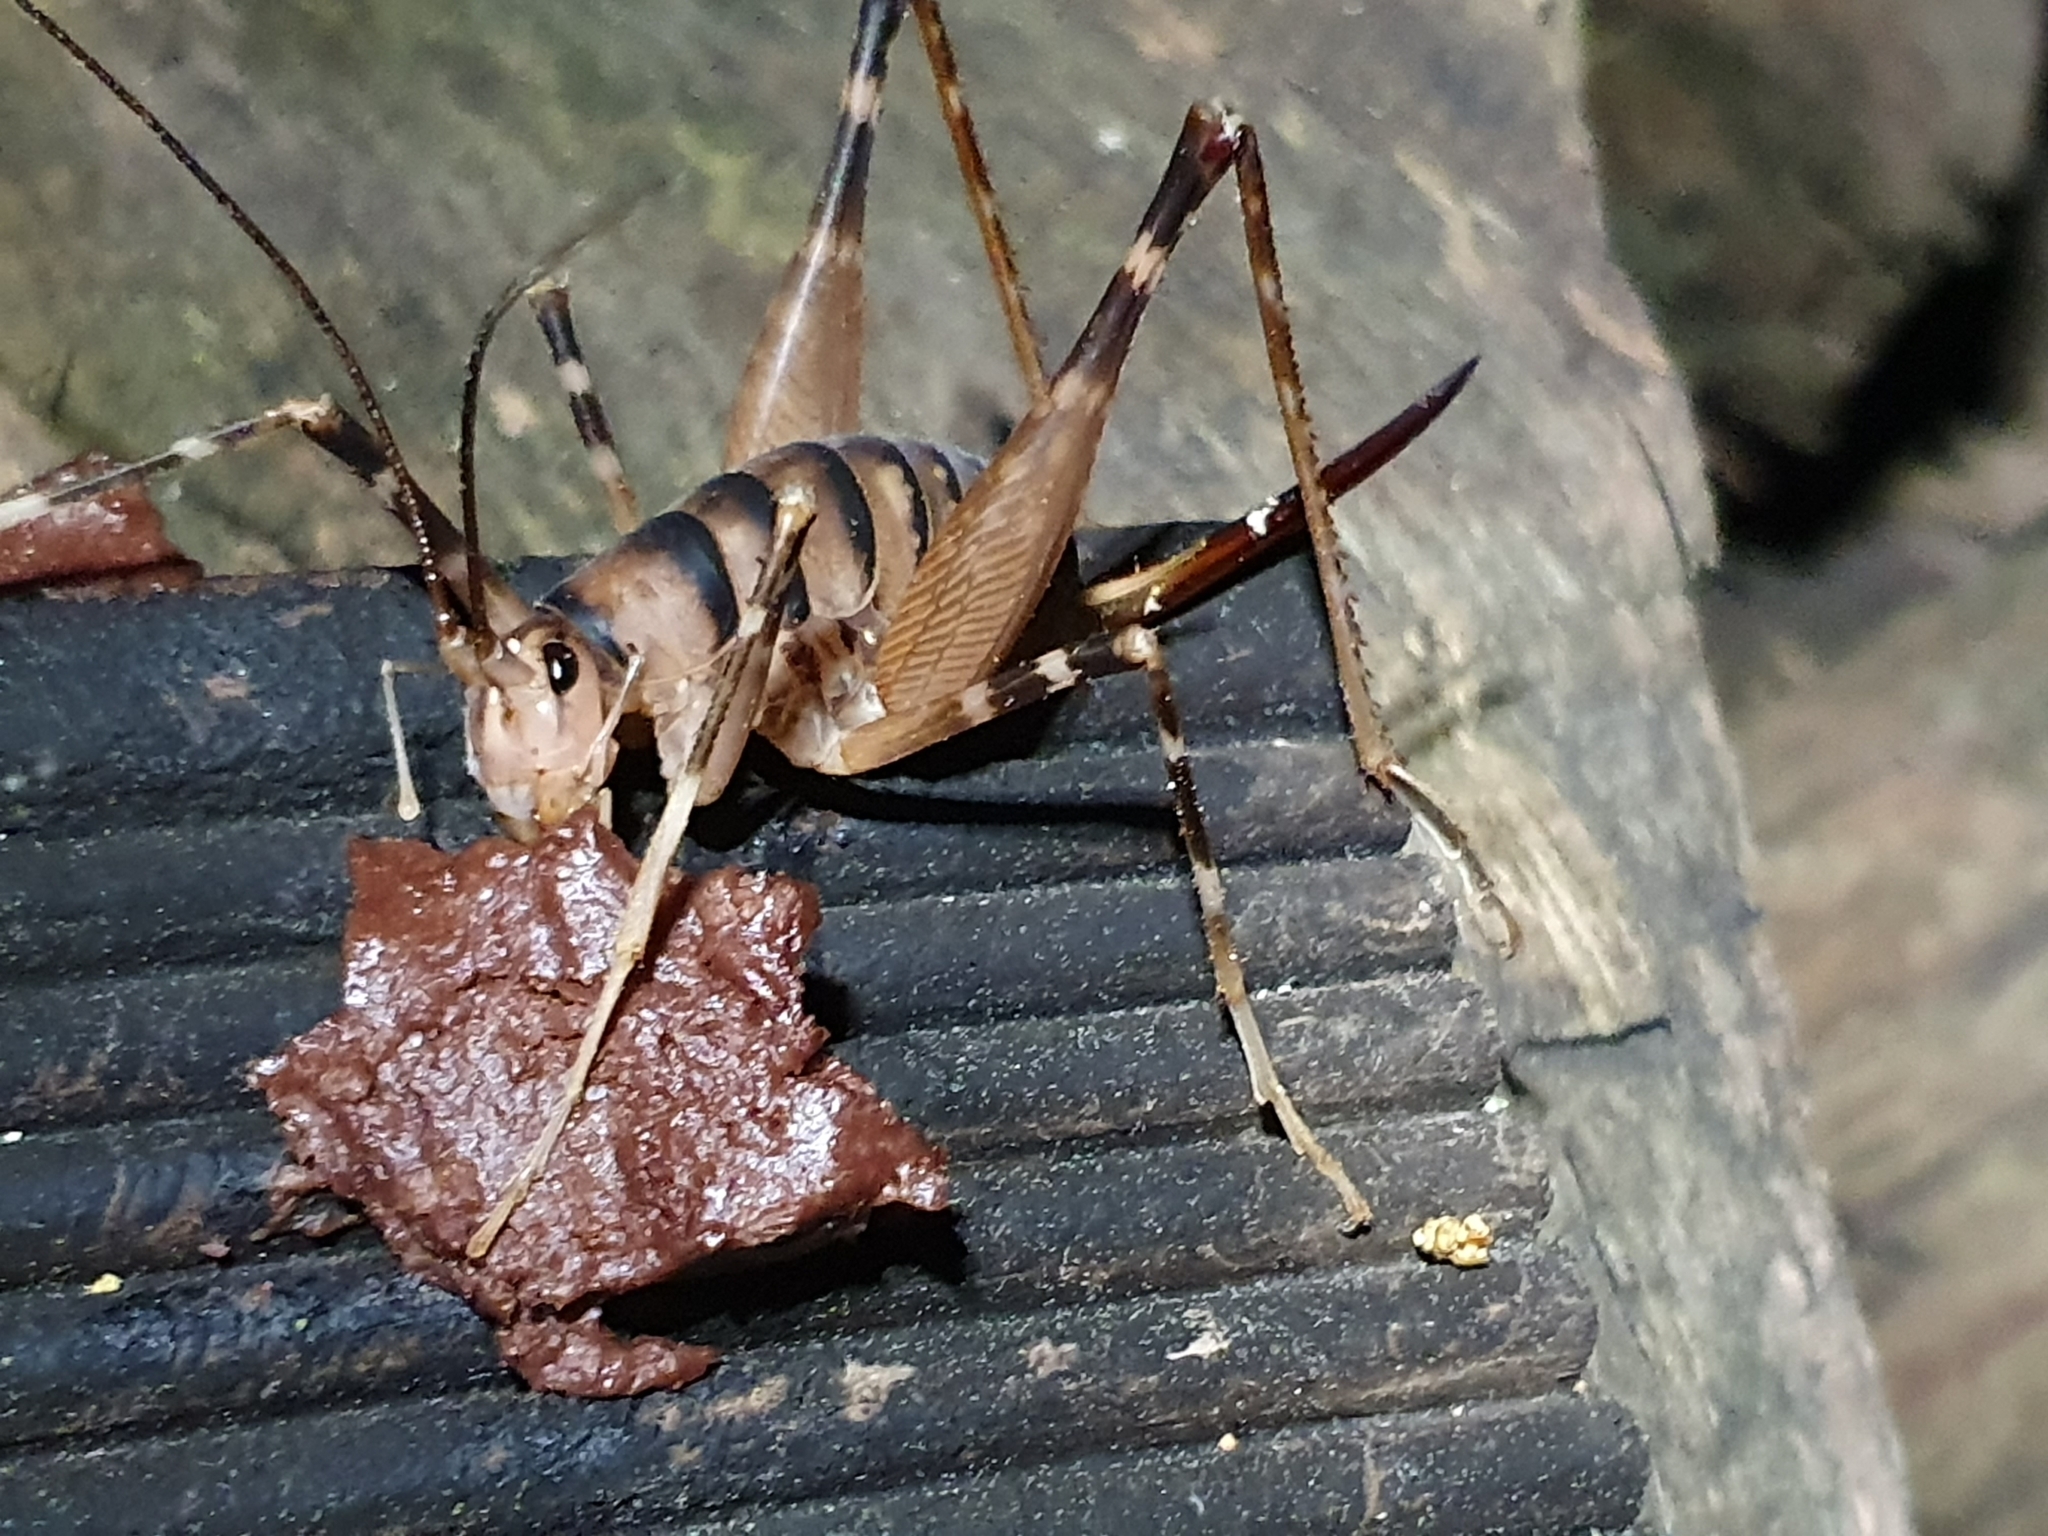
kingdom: Animalia
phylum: Arthropoda
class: Insecta
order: Orthoptera
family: Rhaphidophoridae
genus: Pachyrhamma
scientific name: Pachyrhamma edwardsii
